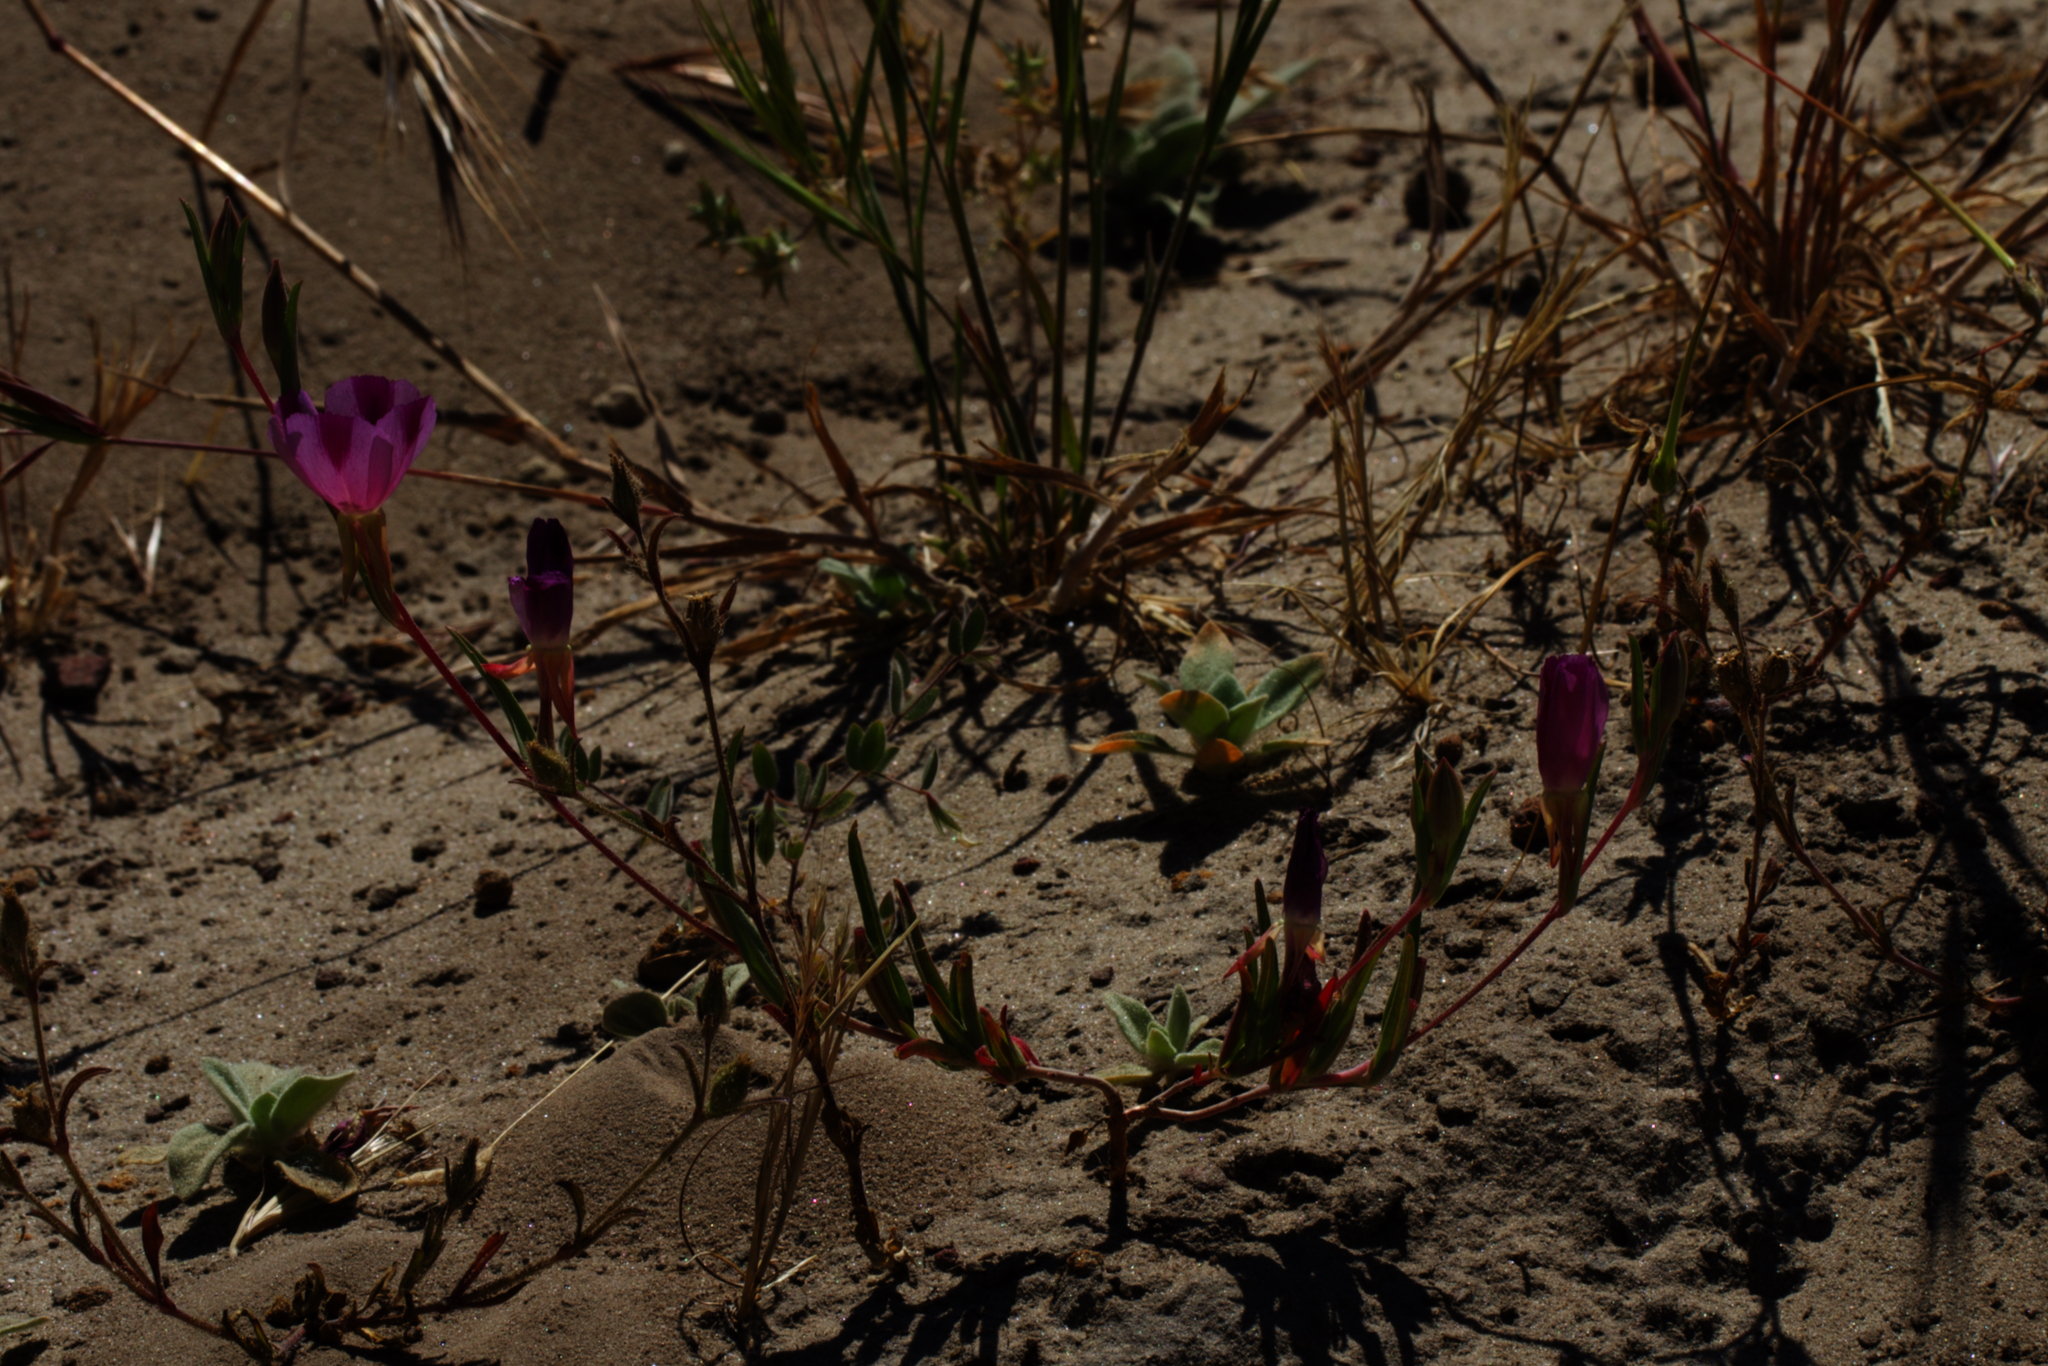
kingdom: Plantae
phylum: Tracheophyta
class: Magnoliopsida
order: Myrtales
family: Onagraceae
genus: Clarkia
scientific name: Clarkia purpurea
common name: Purple clarkia
